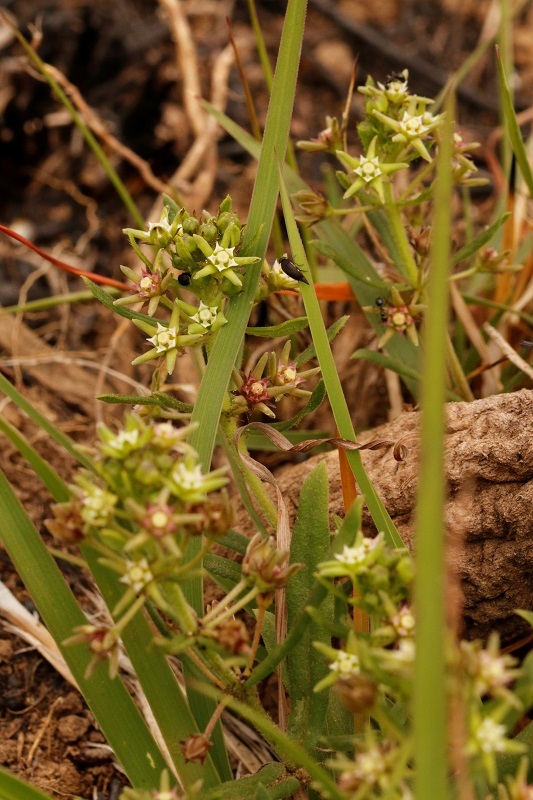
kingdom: Plantae
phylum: Tracheophyta
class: Magnoliopsida
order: Gentianales
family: Apocynaceae
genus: Aspidoglossum
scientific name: Aspidoglossum heterophyllum
